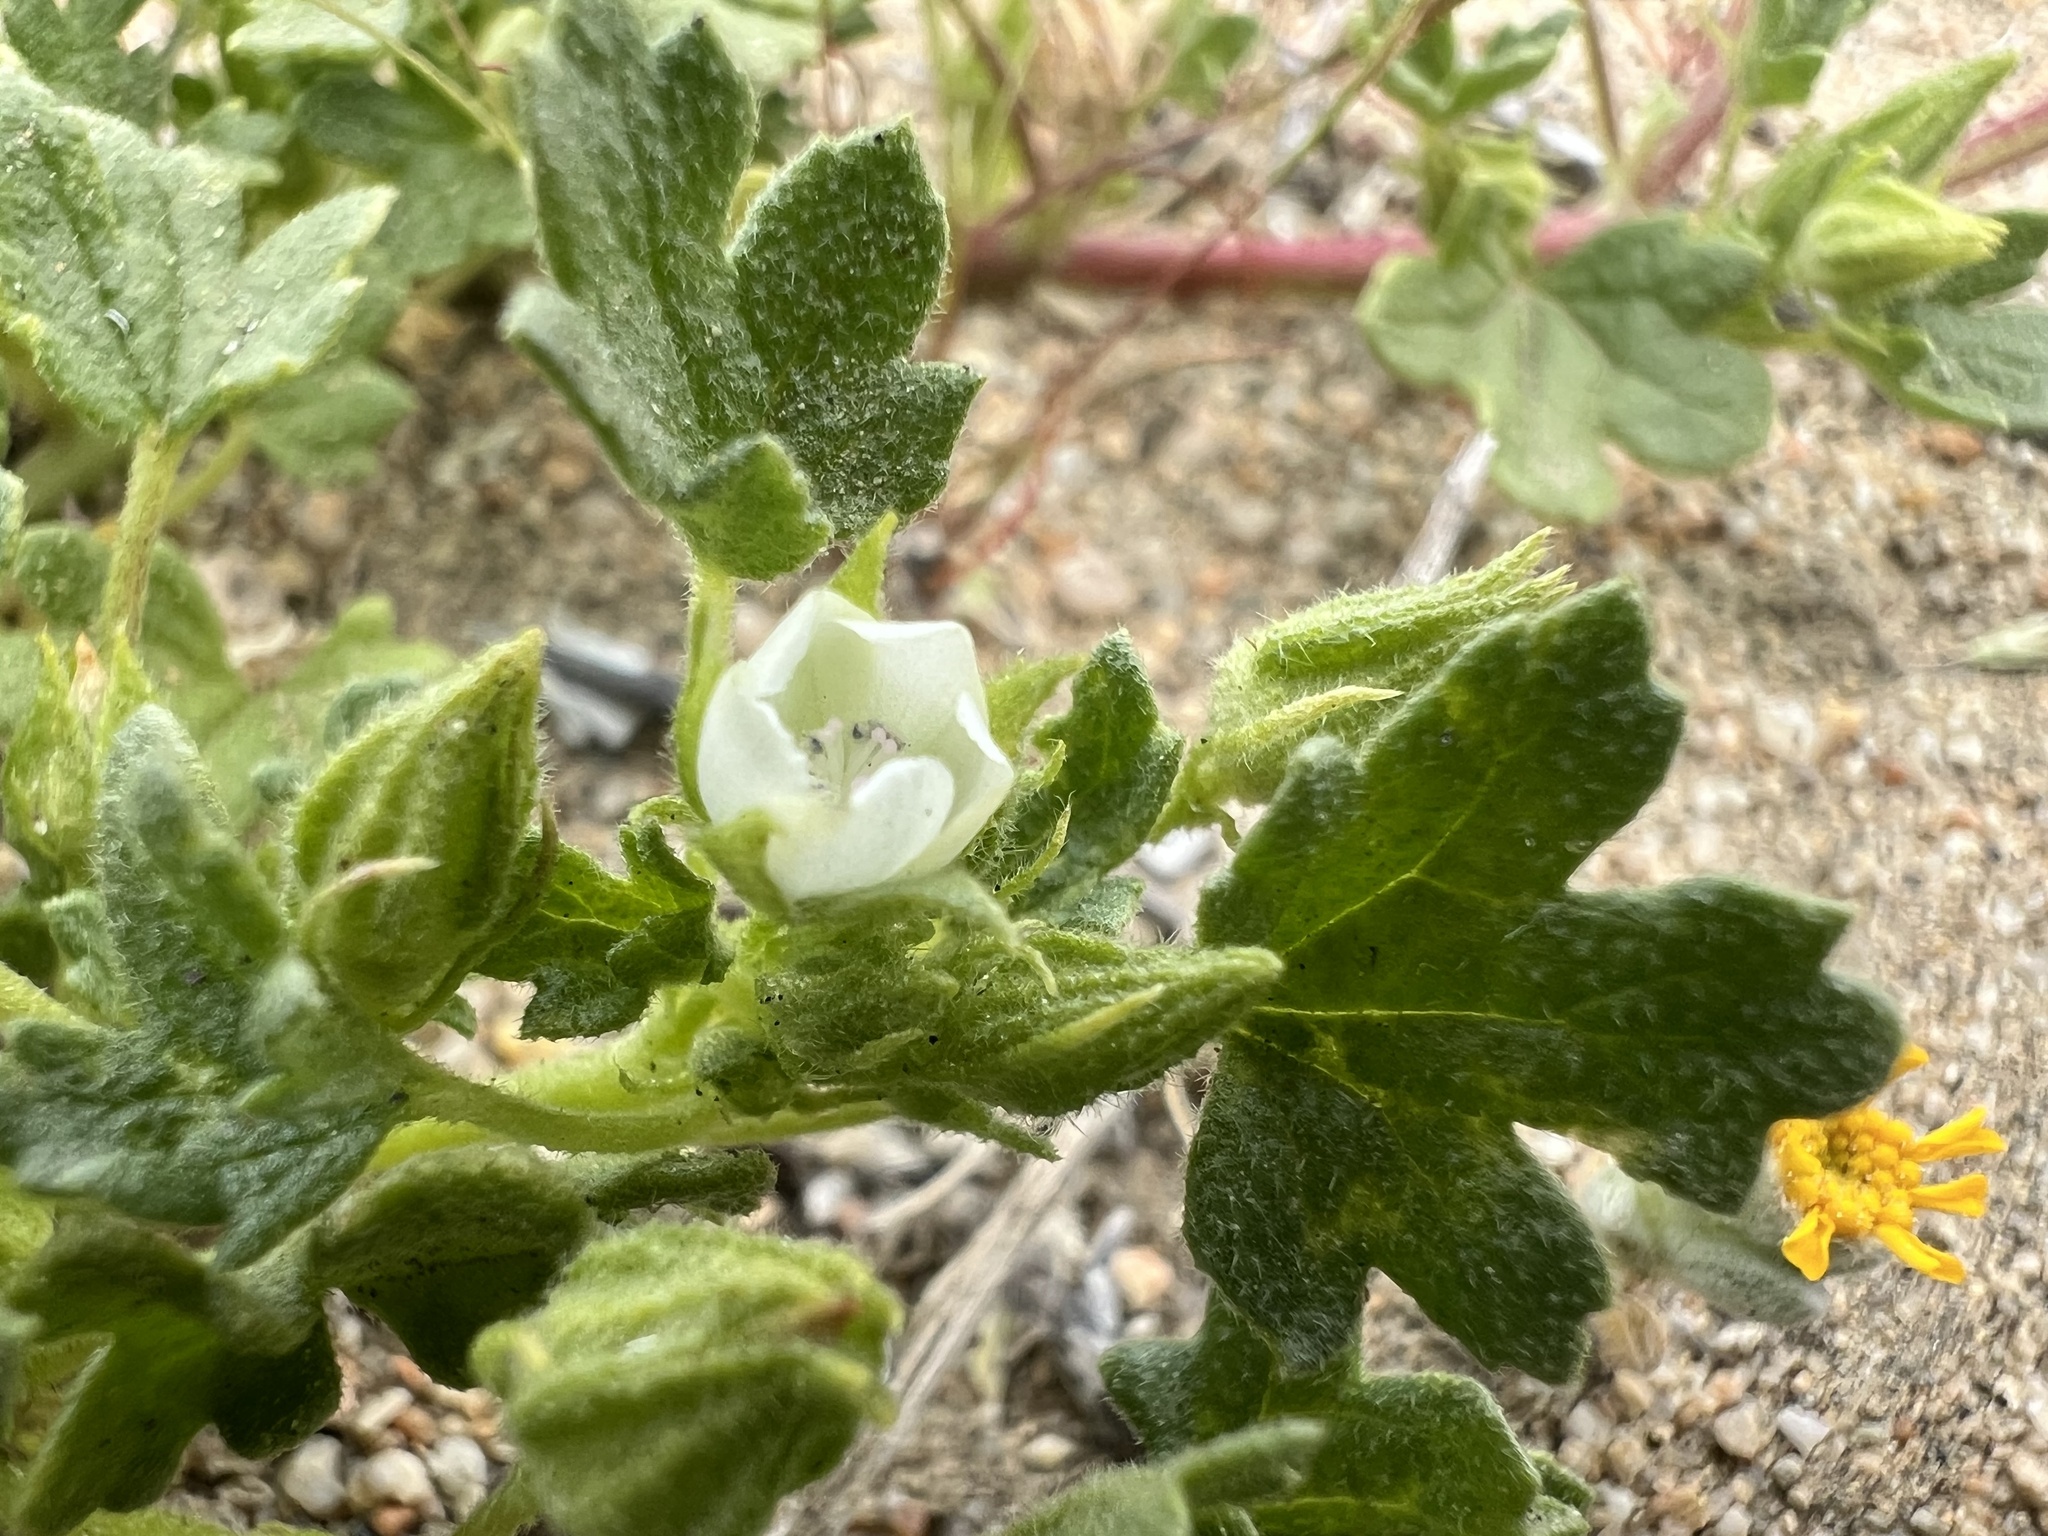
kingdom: Plantae
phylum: Tracheophyta
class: Magnoliopsida
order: Malvales
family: Malvaceae
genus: Eremalche
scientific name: Eremalche exilis
